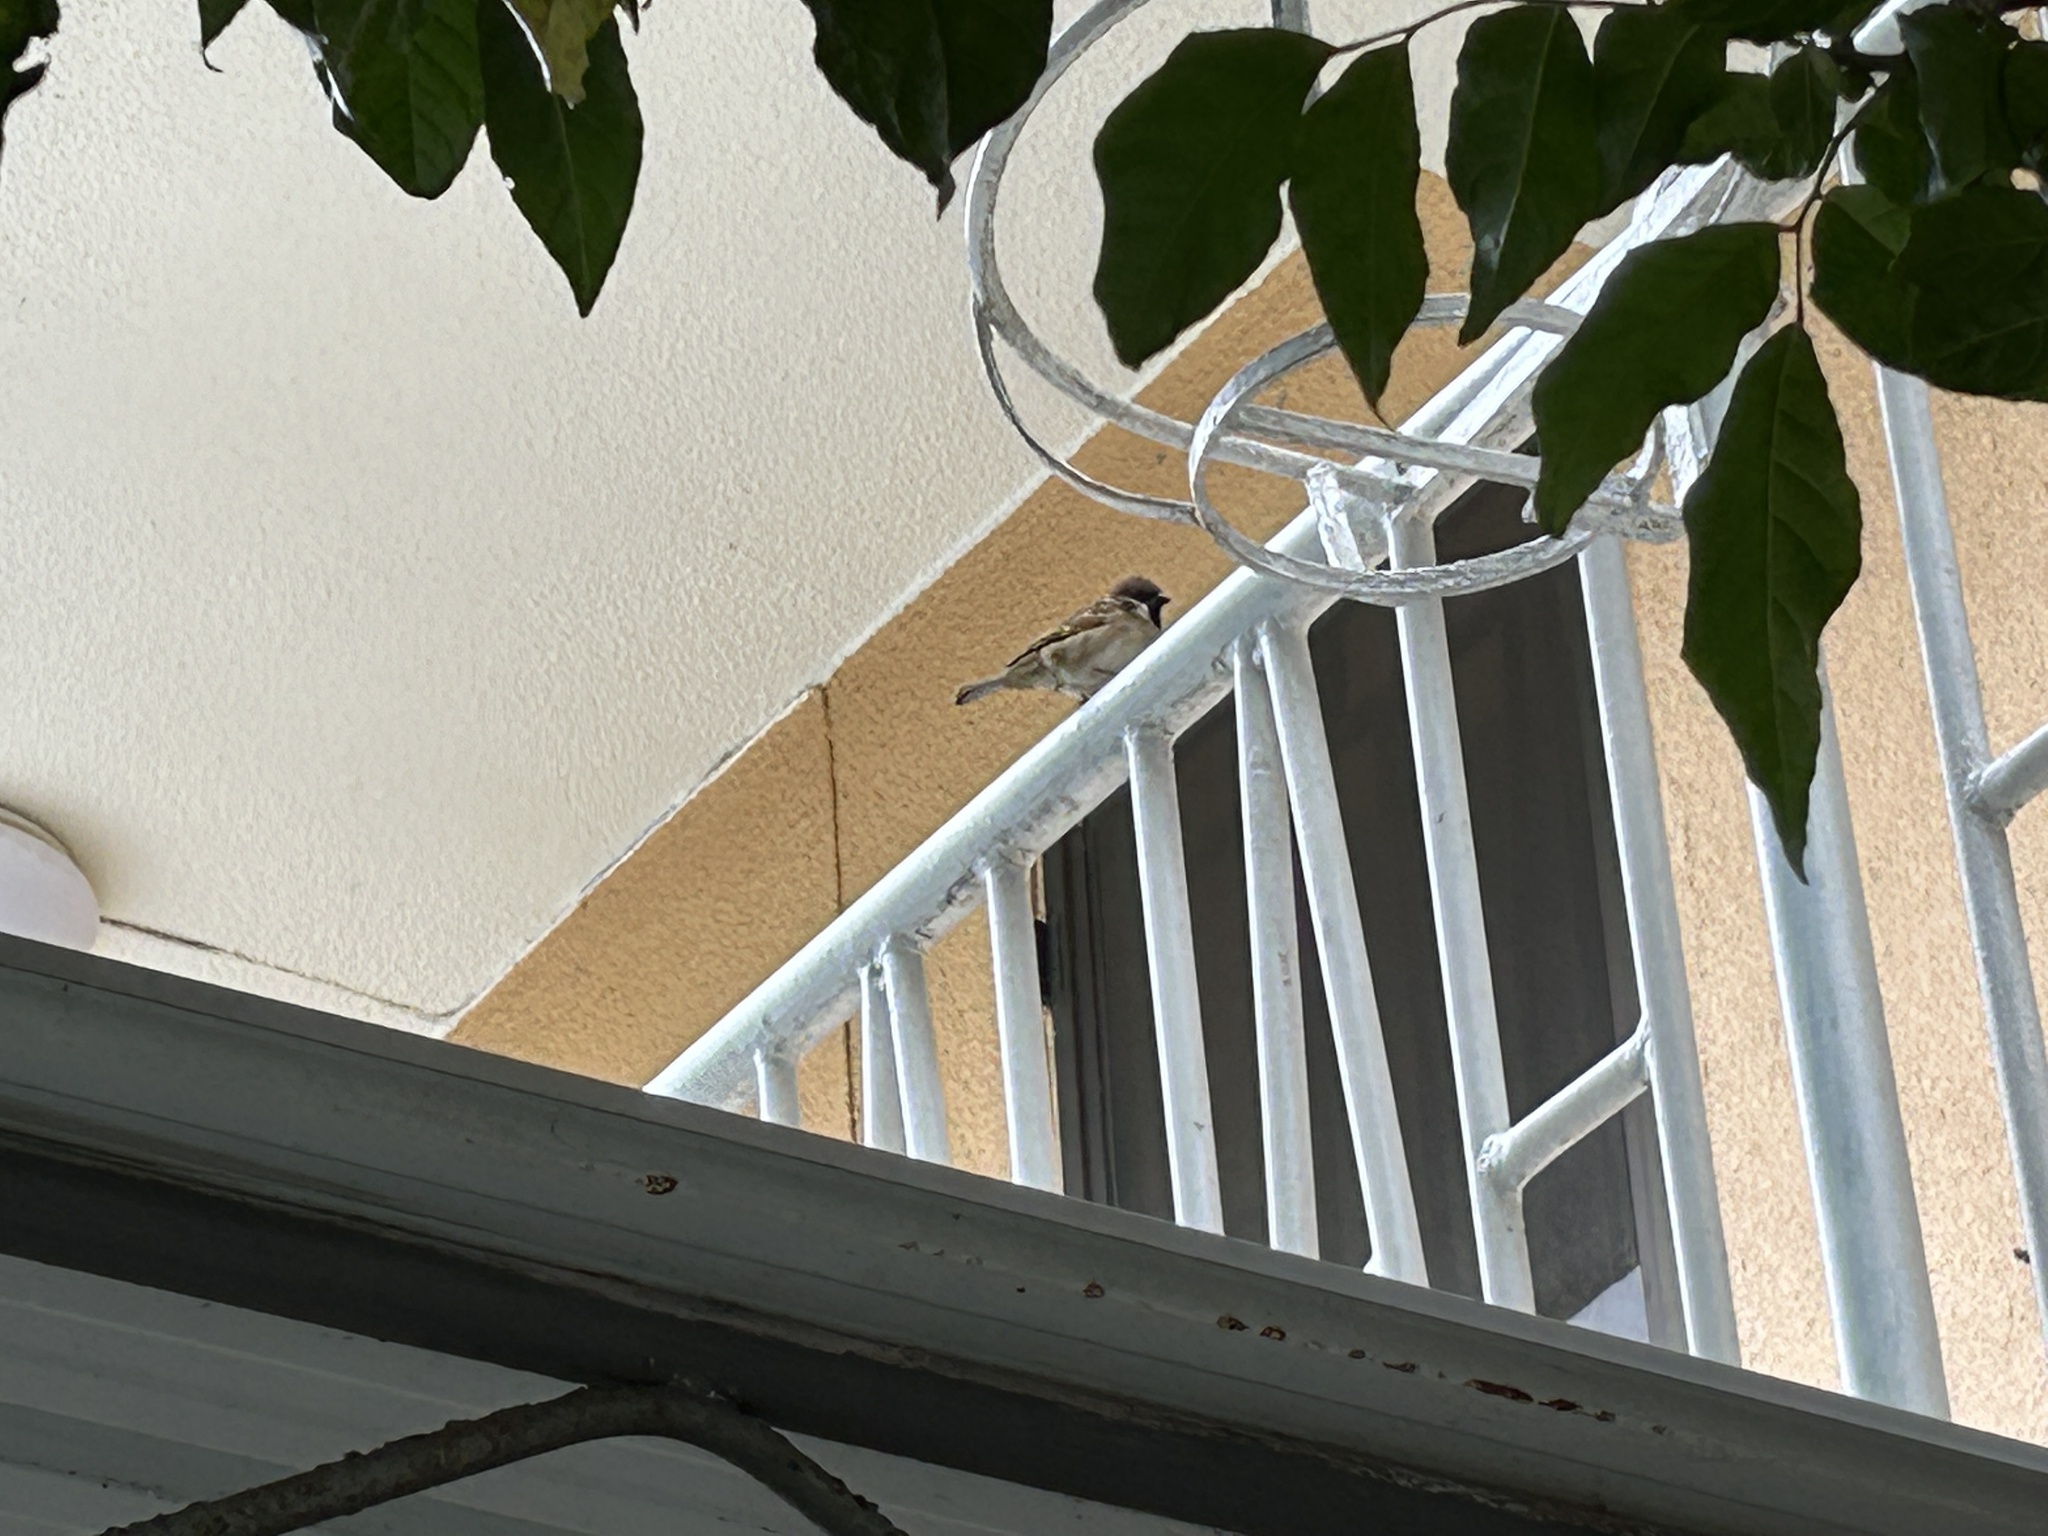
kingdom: Animalia
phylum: Chordata
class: Aves
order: Passeriformes
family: Passeridae
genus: Passer
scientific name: Passer montanus
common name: Eurasian tree sparrow
